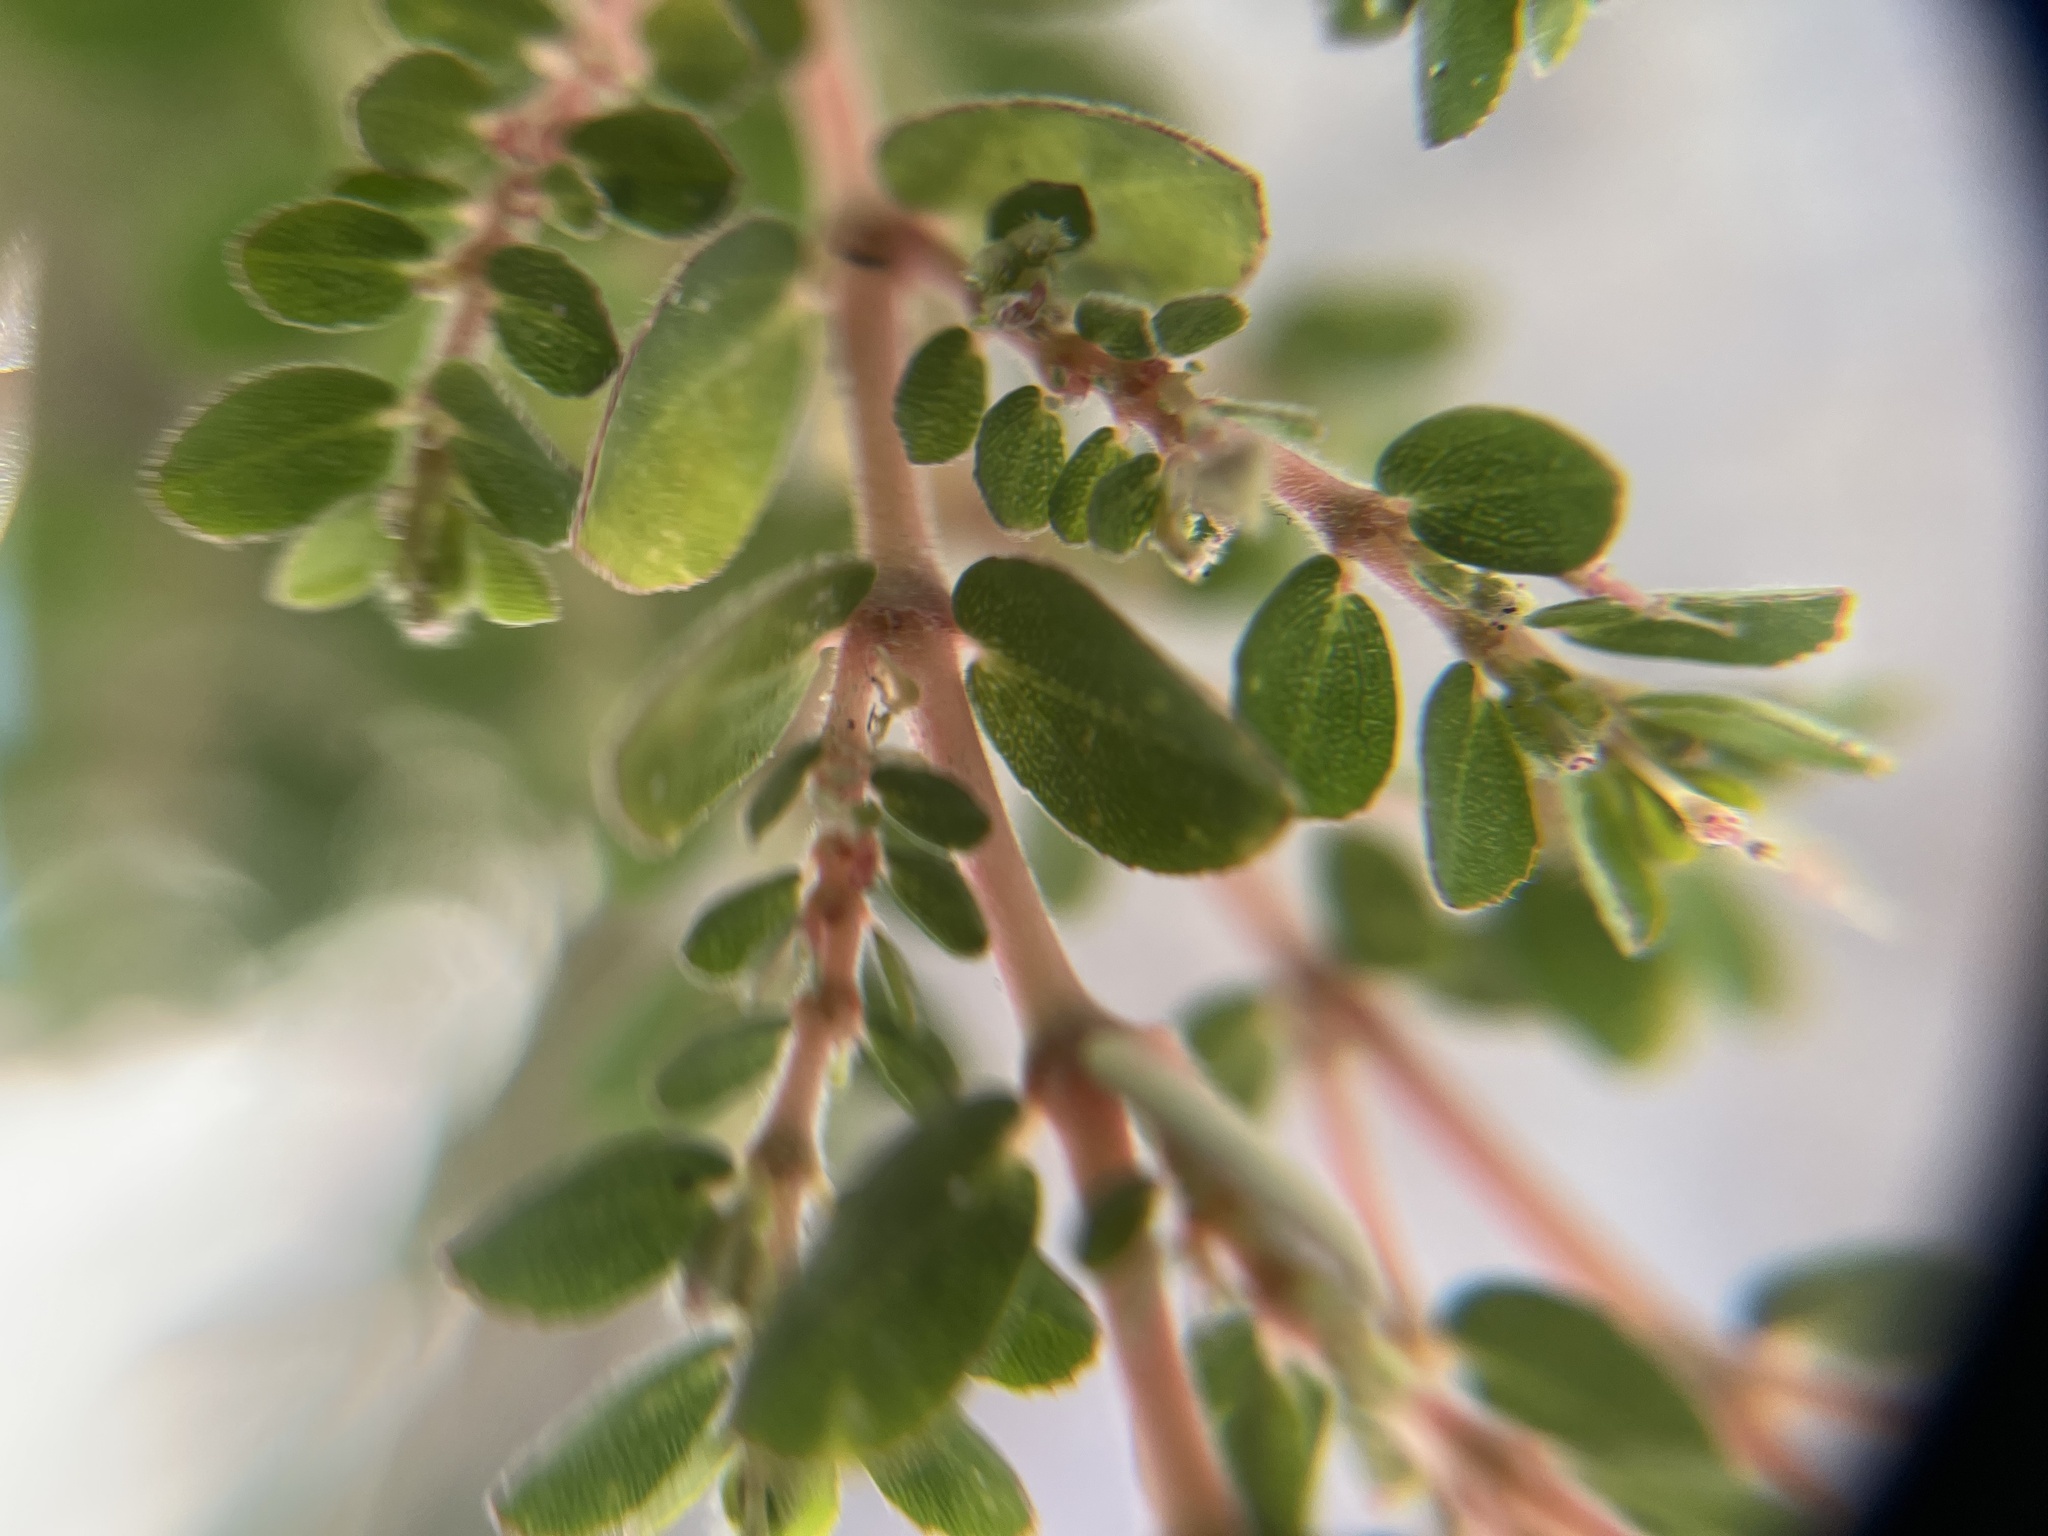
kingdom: Plantae
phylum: Tracheophyta
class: Magnoliopsida
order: Malpighiales
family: Euphorbiaceae
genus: Euphorbia
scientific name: Euphorbia prostrata
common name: Prostrate sandmat
